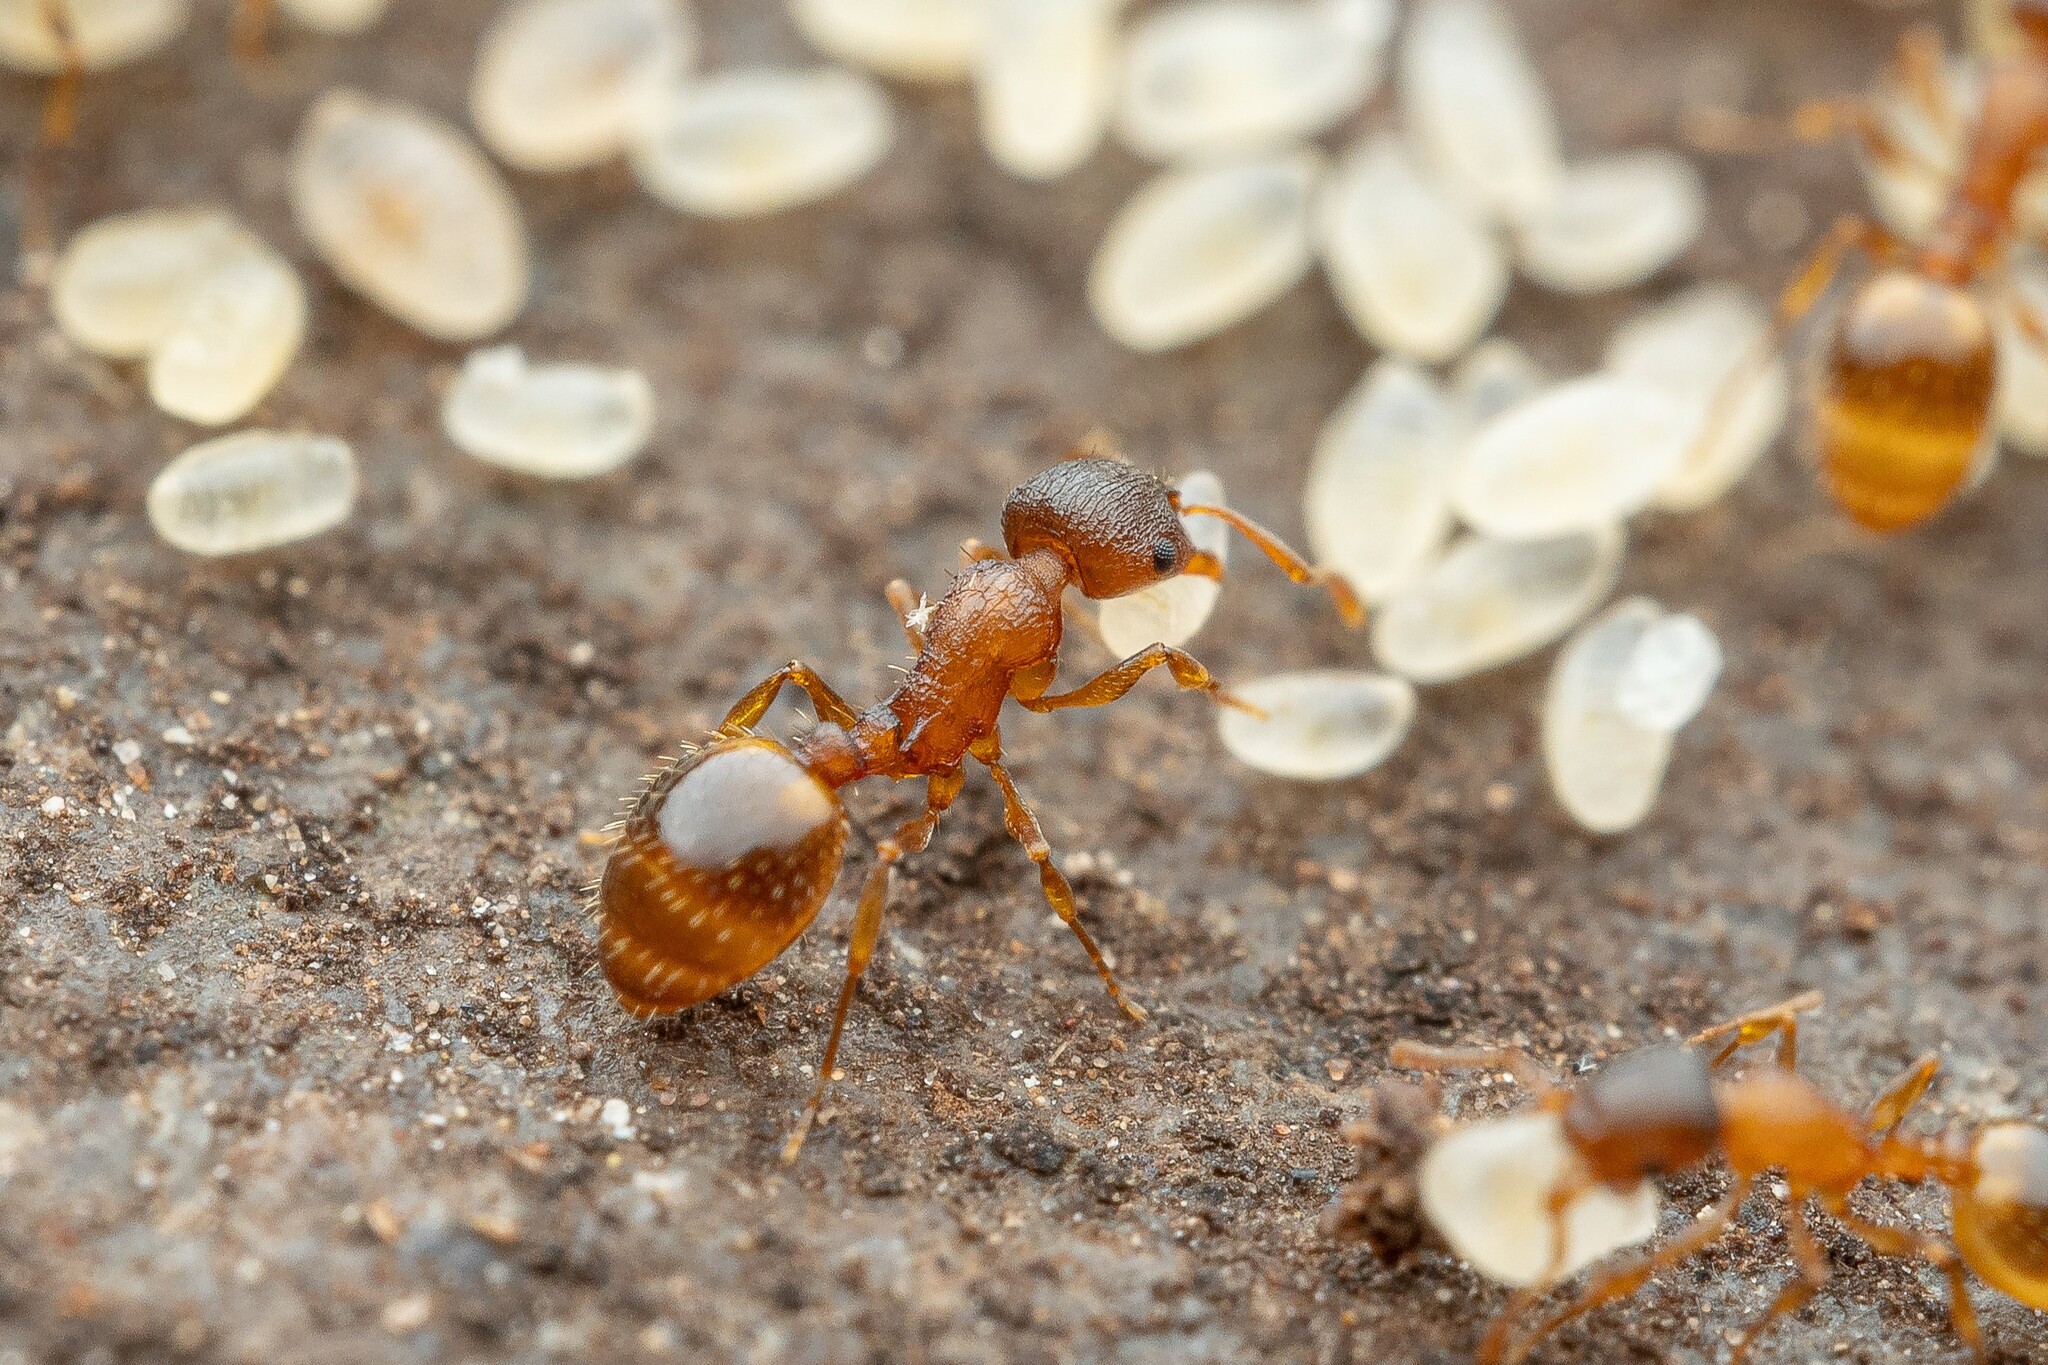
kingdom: Animalia
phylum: Arthropoda
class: Insecta
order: Hymenoptera
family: Formicidae
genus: Leptothorax
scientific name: Leptothorax rugatulus
